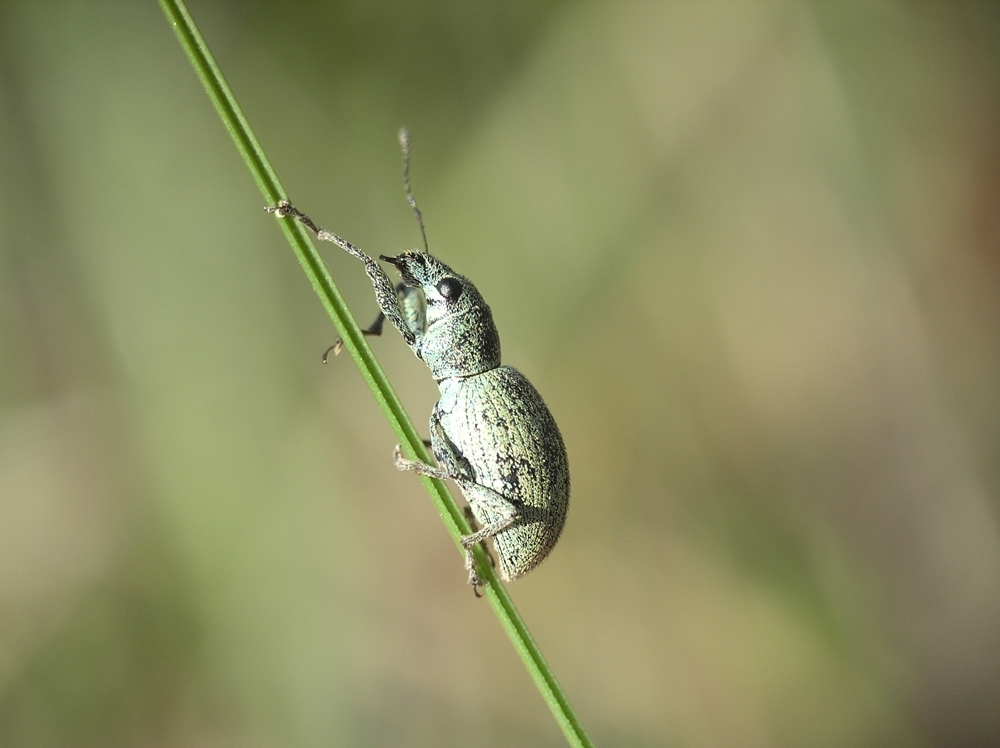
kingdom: Animalia
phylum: Arthropoda
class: Insecta
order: Coleoptera
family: Curculionidae
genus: Eusomus
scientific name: Eusomus ovulum
